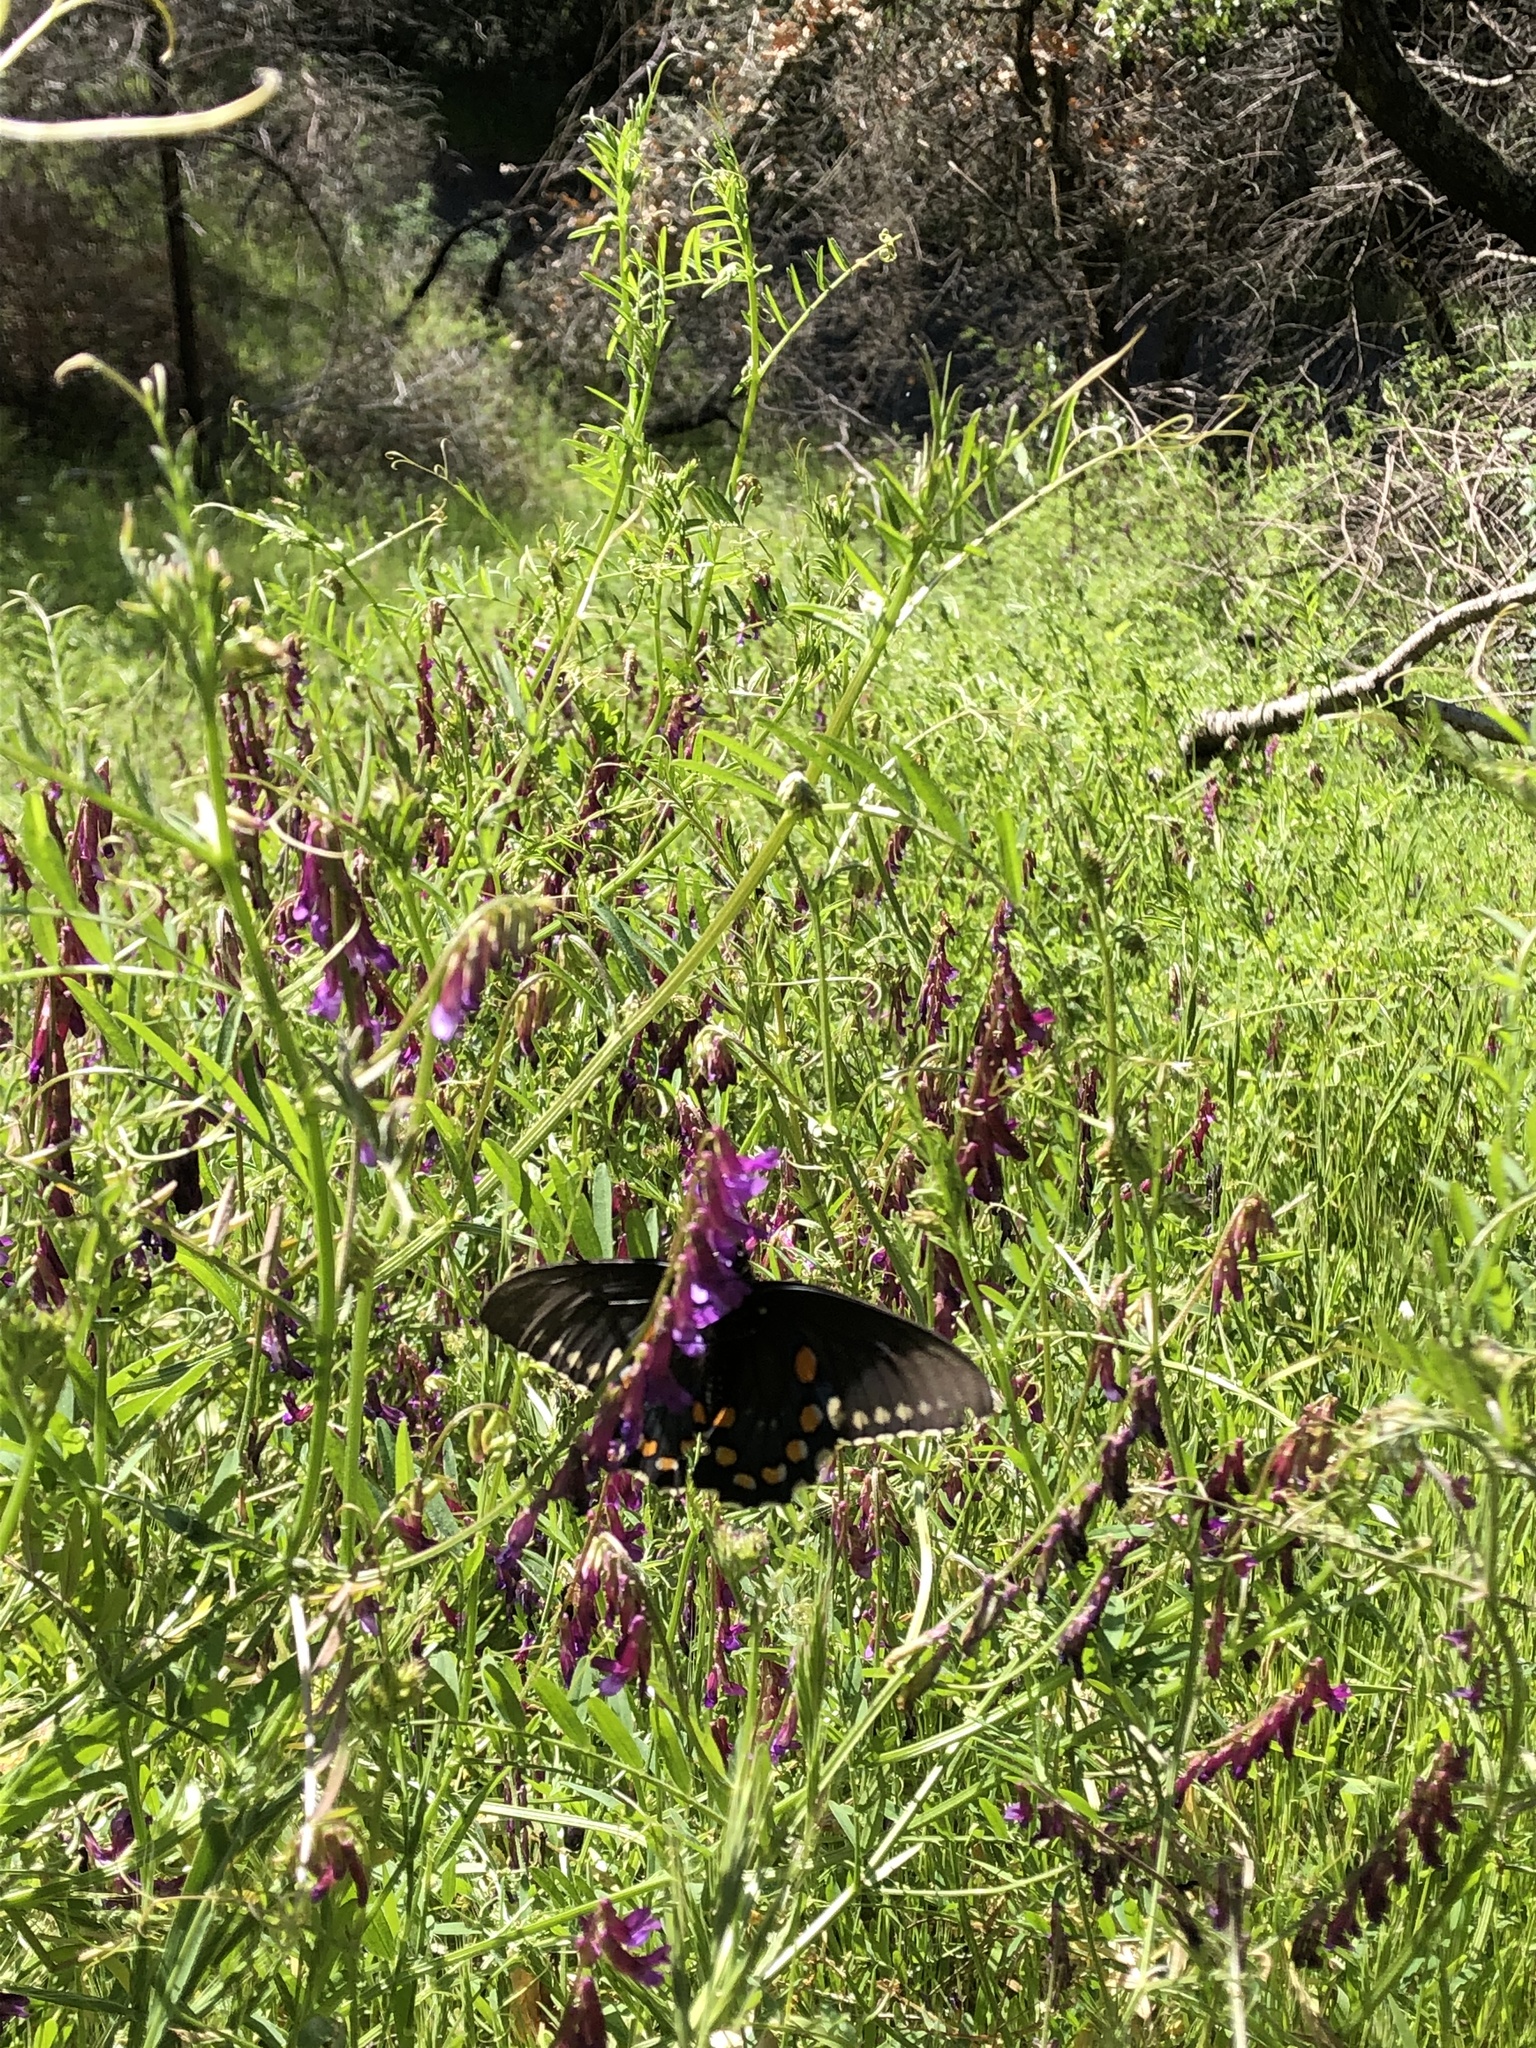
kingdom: Animalia
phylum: Arthropoda
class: Insecta
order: Lepidoptera
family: Papilionidae
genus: Battus
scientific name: Battus philenor
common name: Pipevine swallowtail
